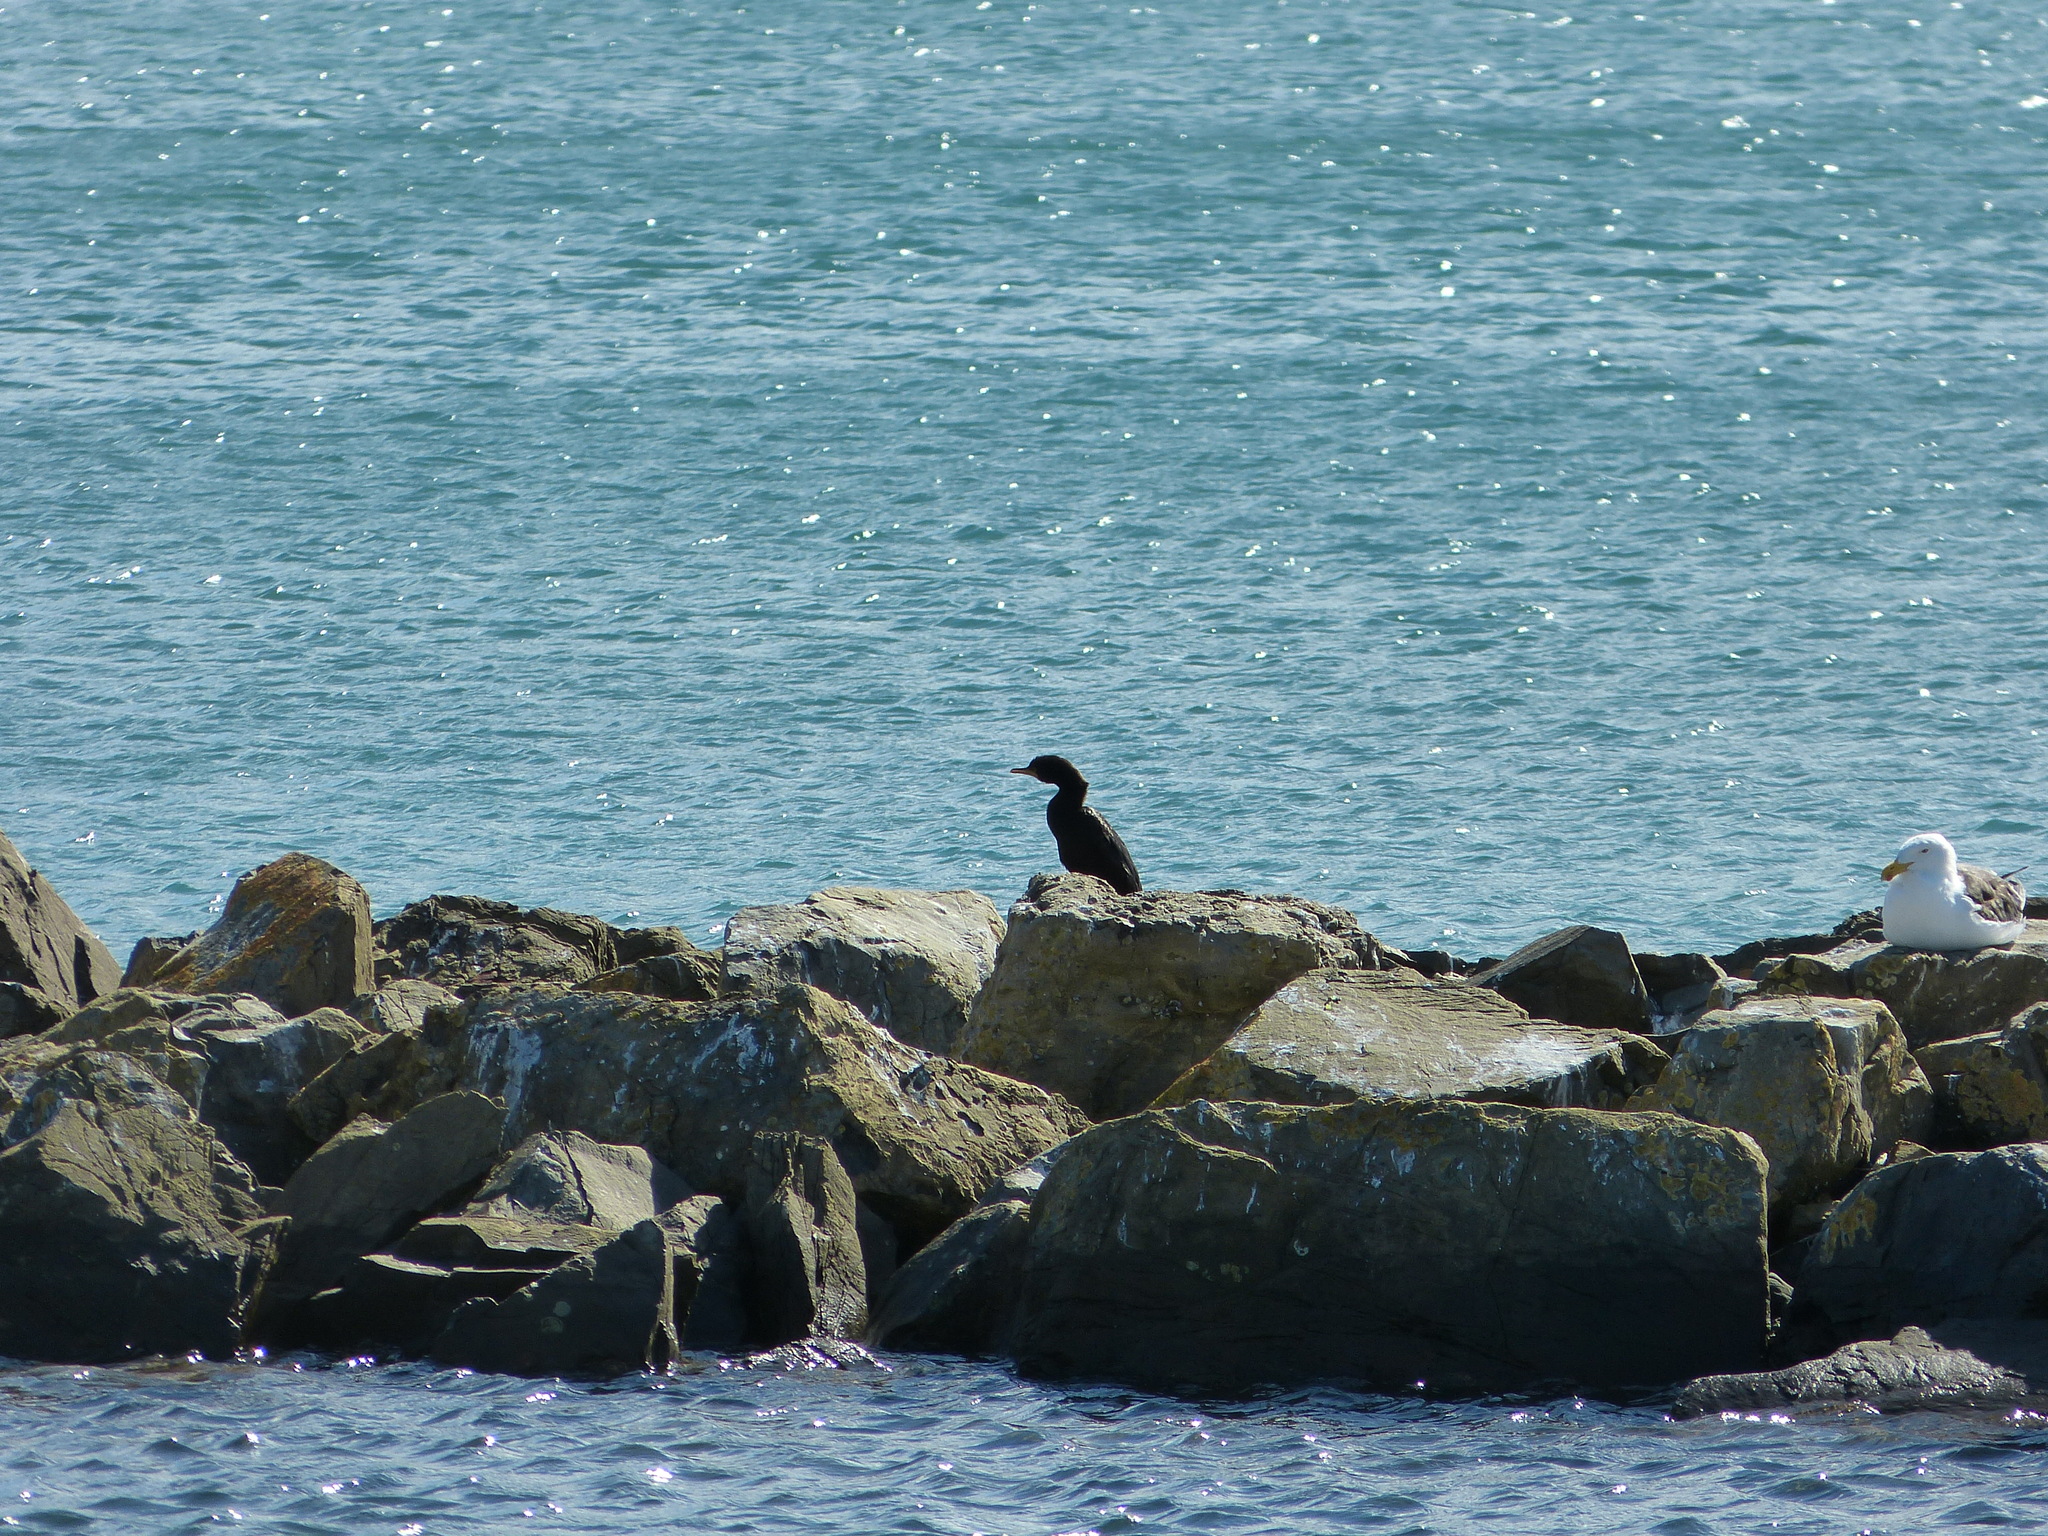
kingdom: Animalia
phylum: Chordata
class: Aves
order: Suliformes
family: Phalacrocoracidae
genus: Phalacrocorax
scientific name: Phalacrocorax sulcirostris
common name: Little black cormorant
